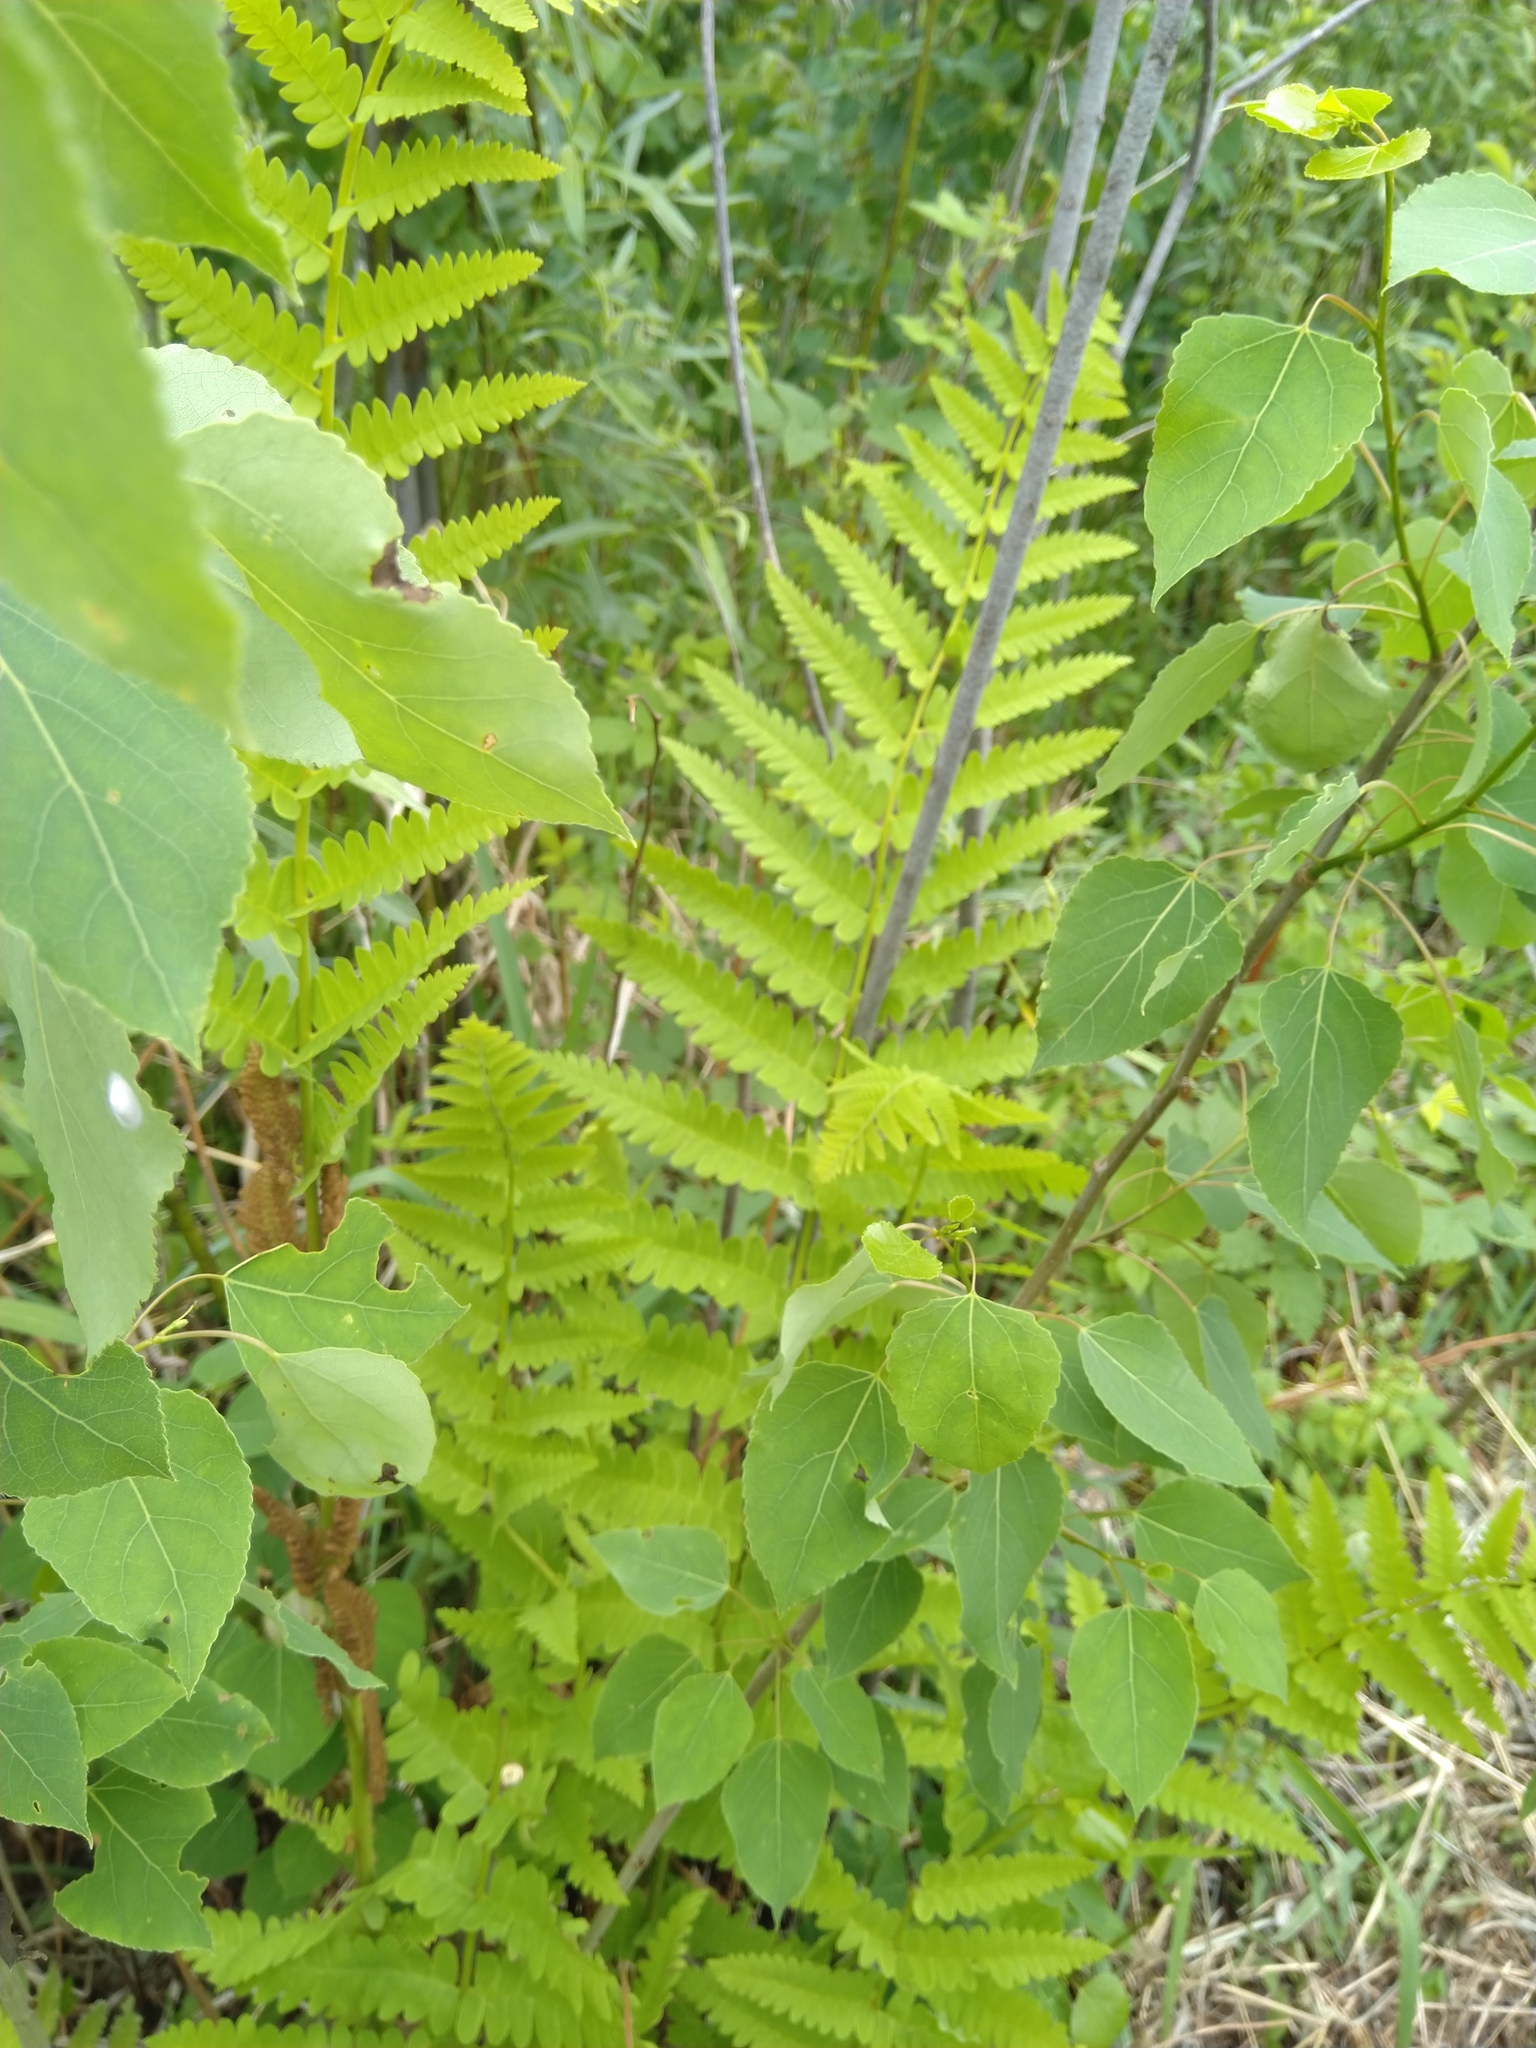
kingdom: Plantae
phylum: Tracheophyta
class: Polypodiopsida
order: Osmundales
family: Osmundaceae
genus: Claytosmunda
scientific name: Claytosmunda claytoniana
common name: Clayton's fern
